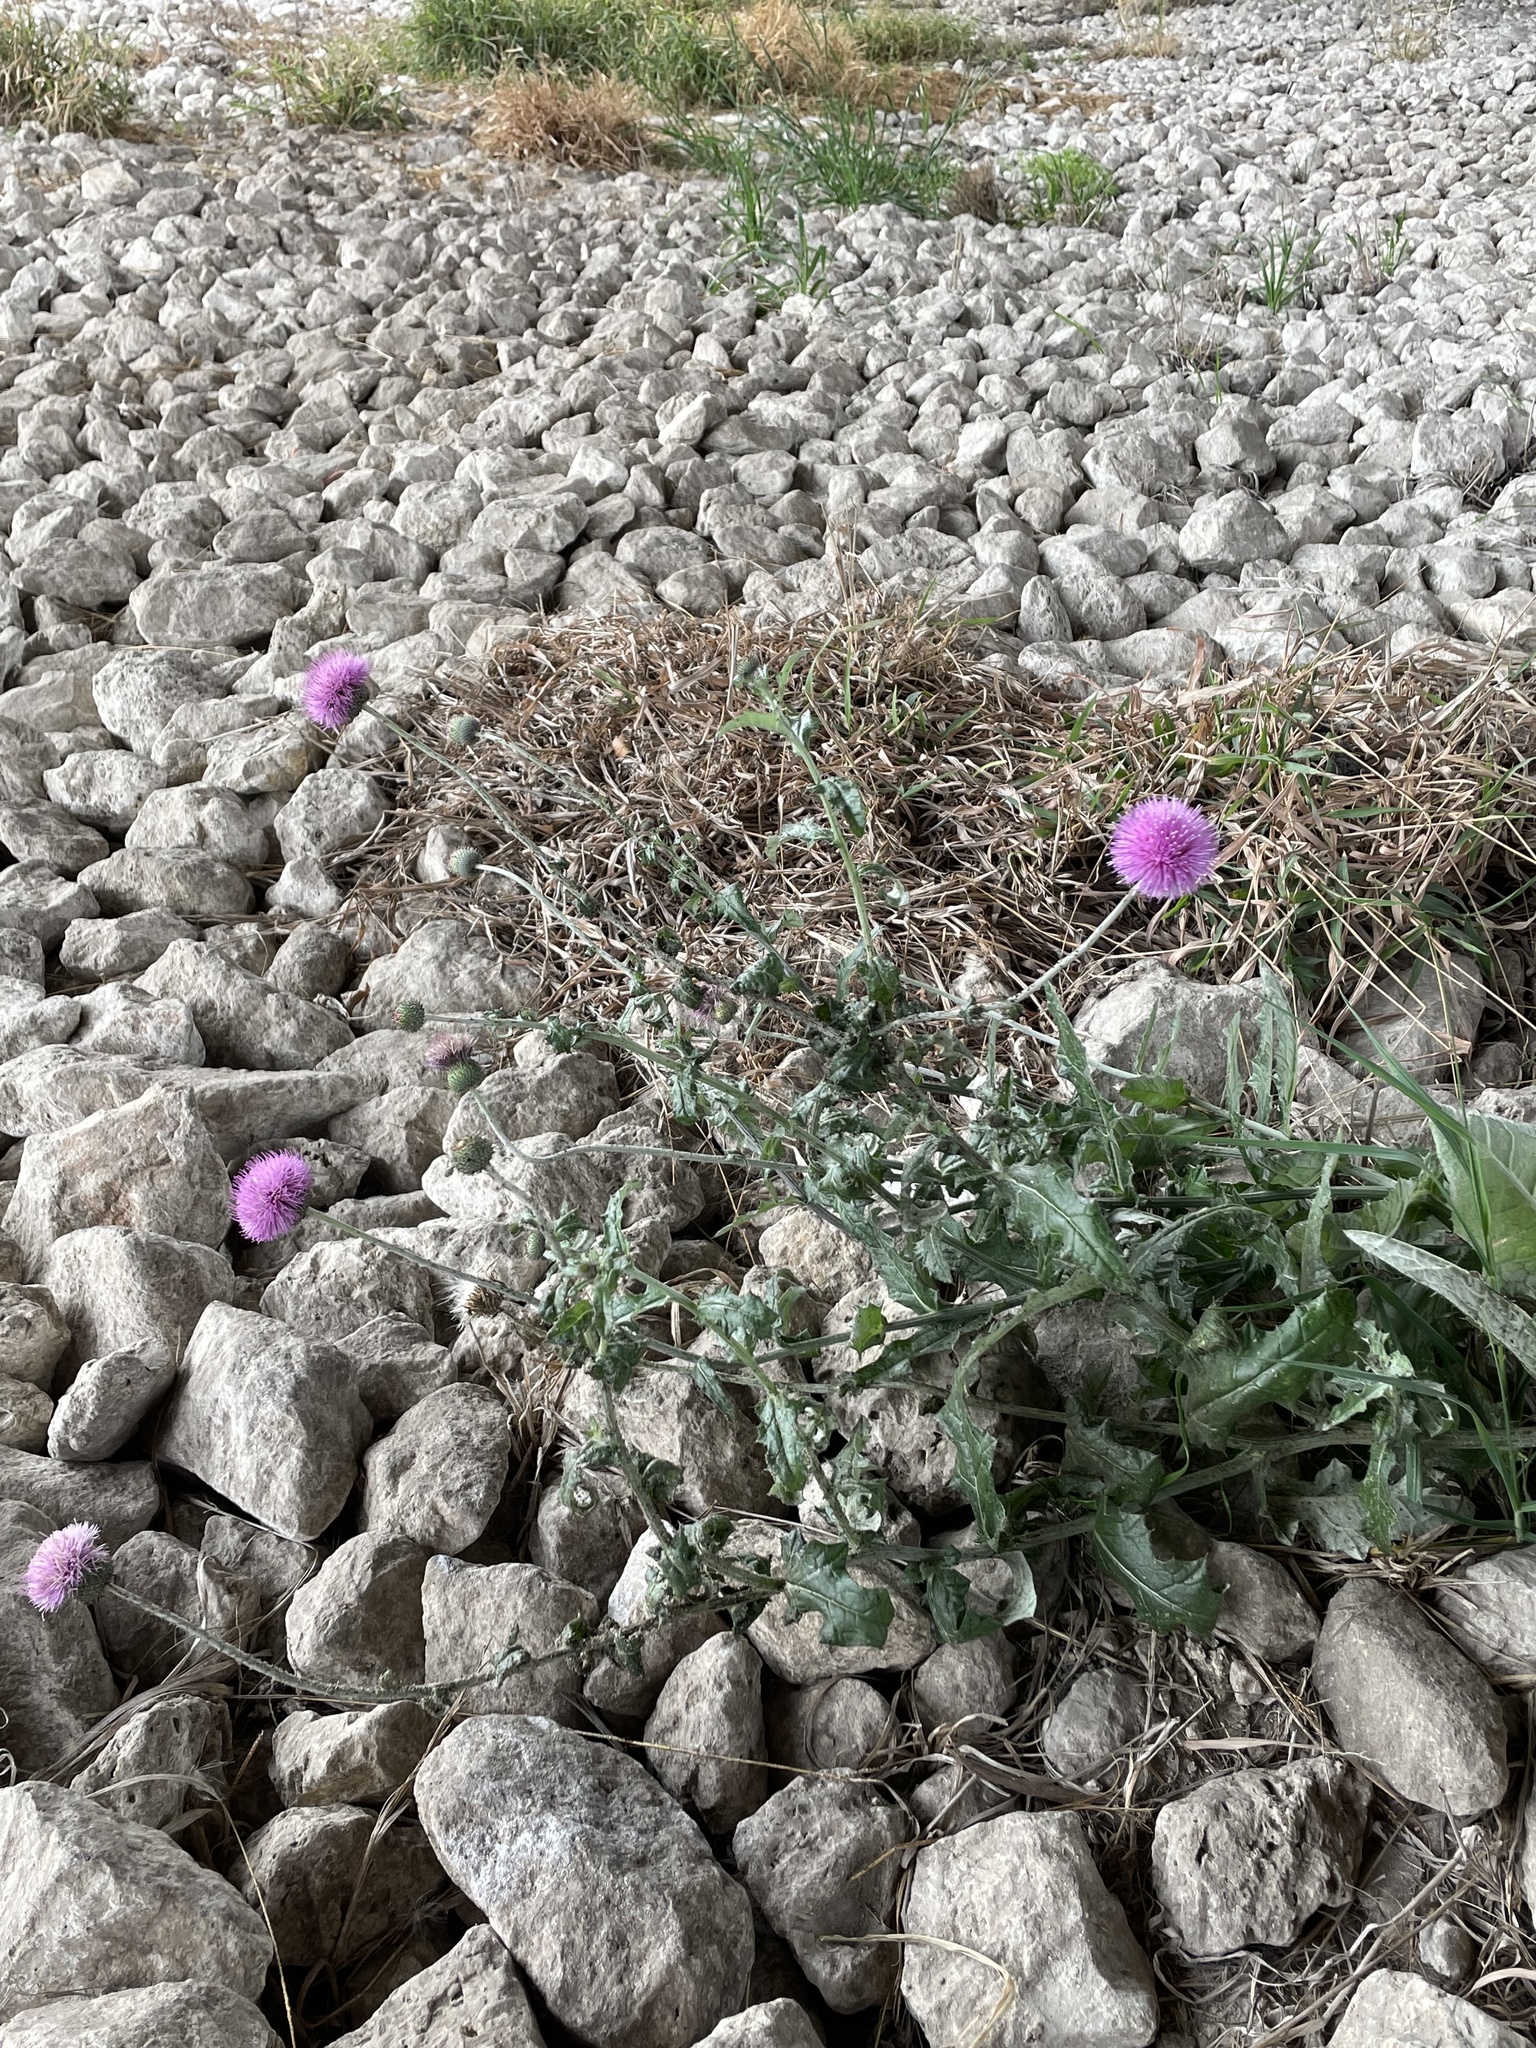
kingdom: Plantae
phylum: Tracheophyta
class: Magnoliopsida
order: Asterales
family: Asteraceae
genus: Cirsium
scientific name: Cirsium texanum
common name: Texas purple thistle
